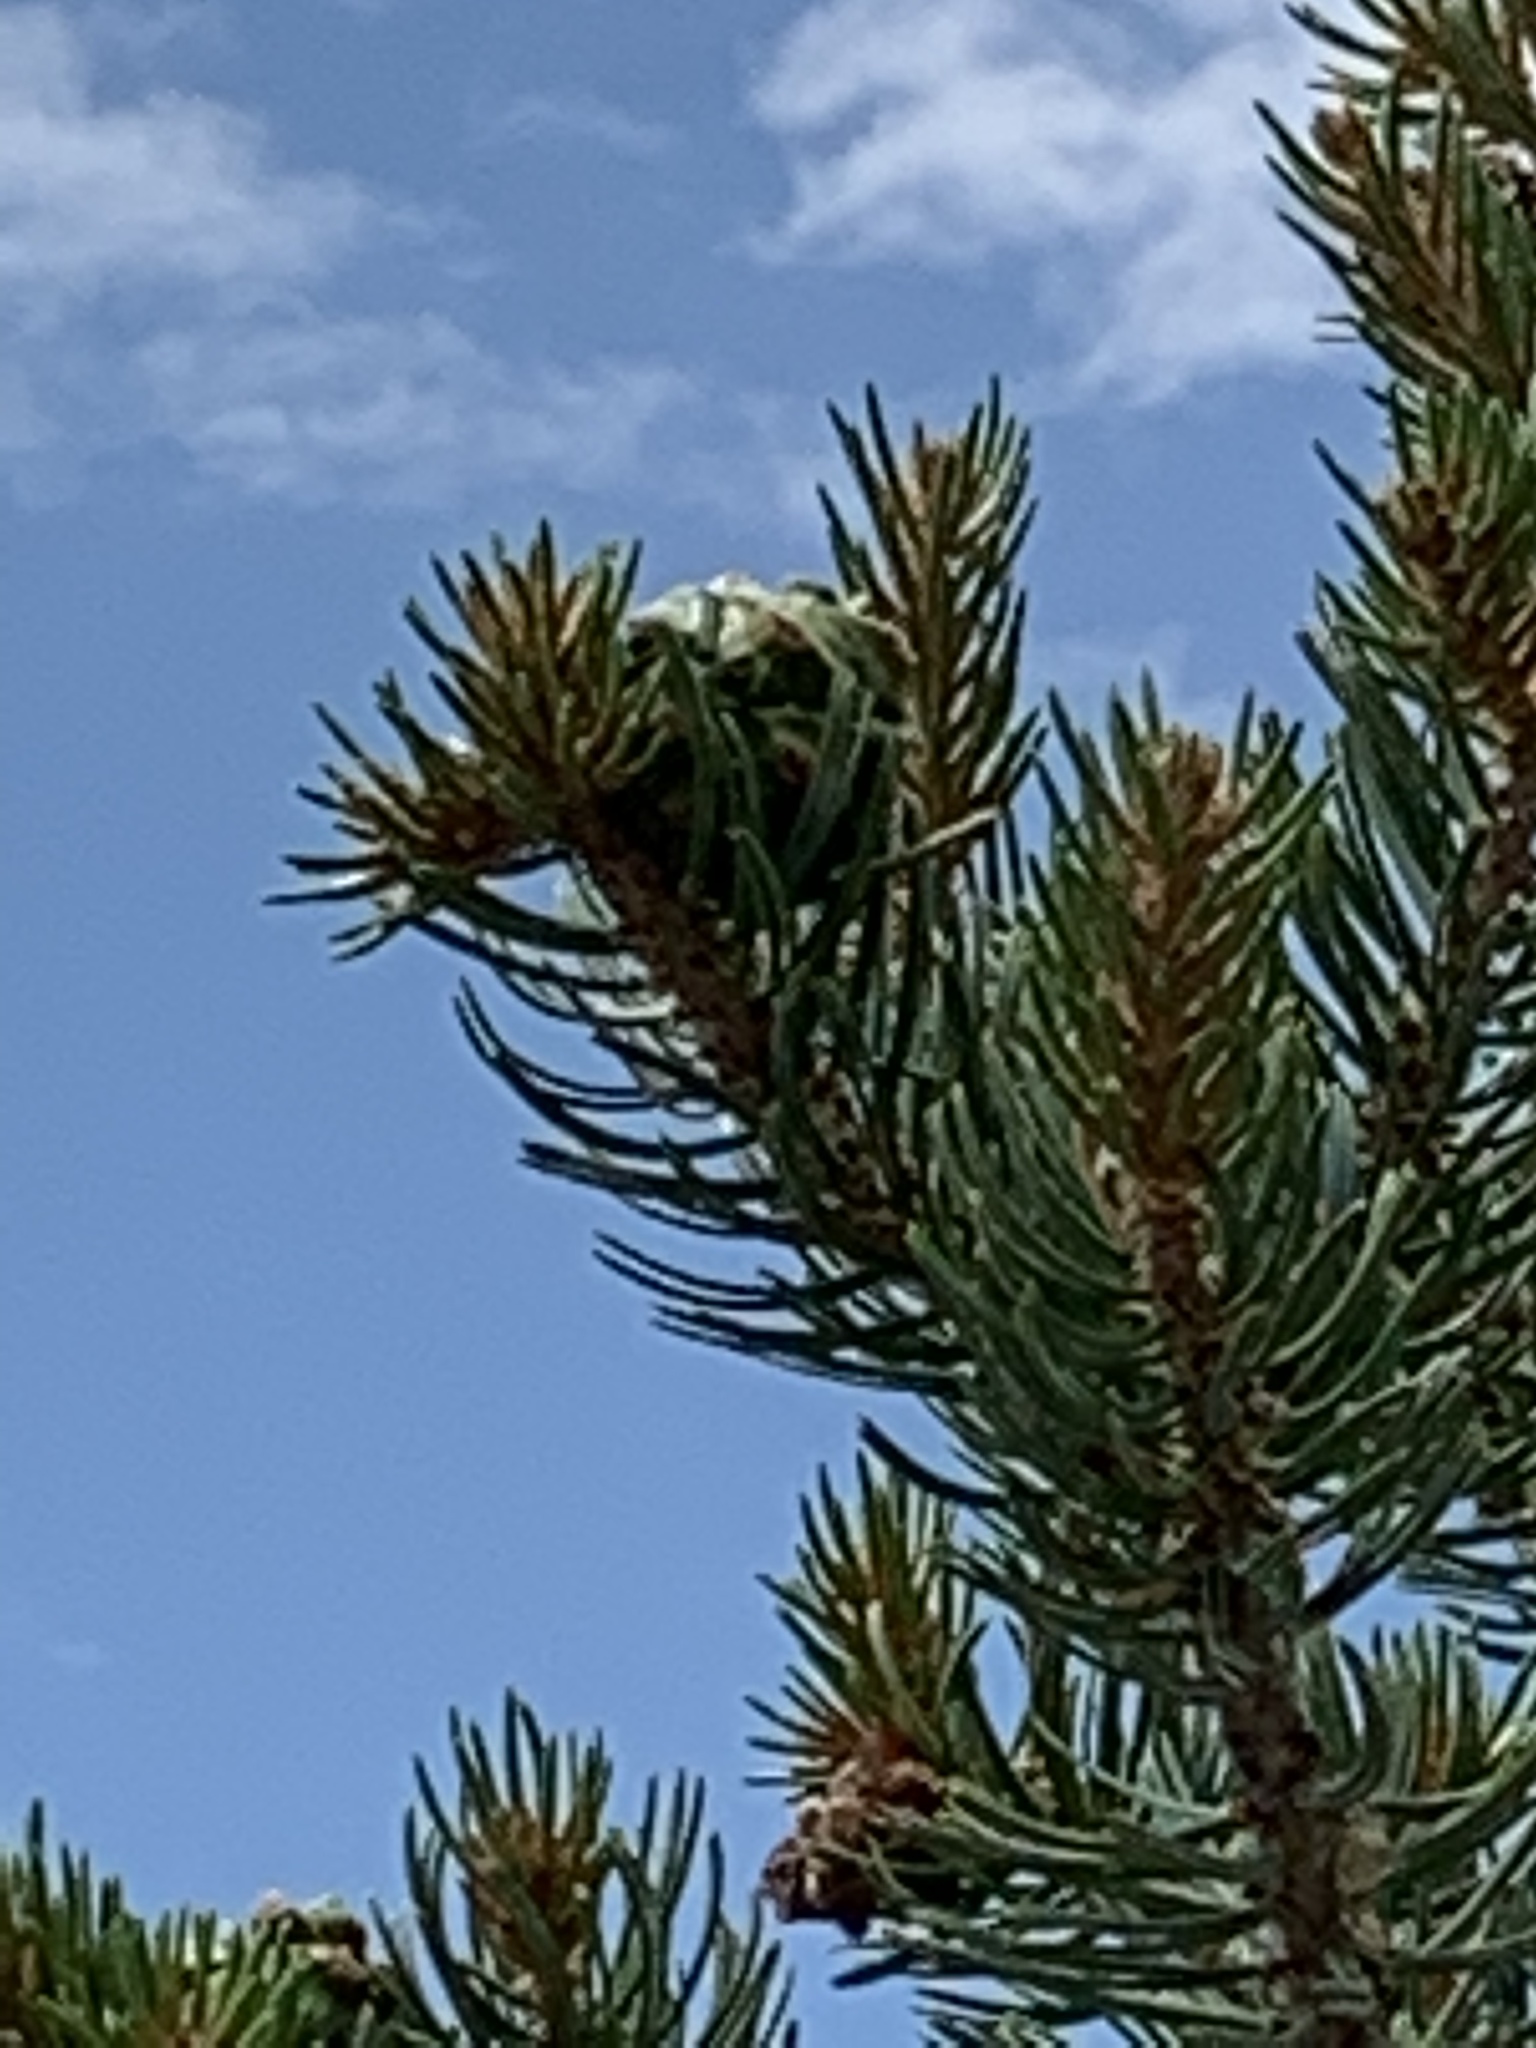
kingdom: Plantae
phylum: Tracheophyta
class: Pinopsida
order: Pinales
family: Pinaceae
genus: Pinus
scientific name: Pinus edulis
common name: Colorado pinyon
